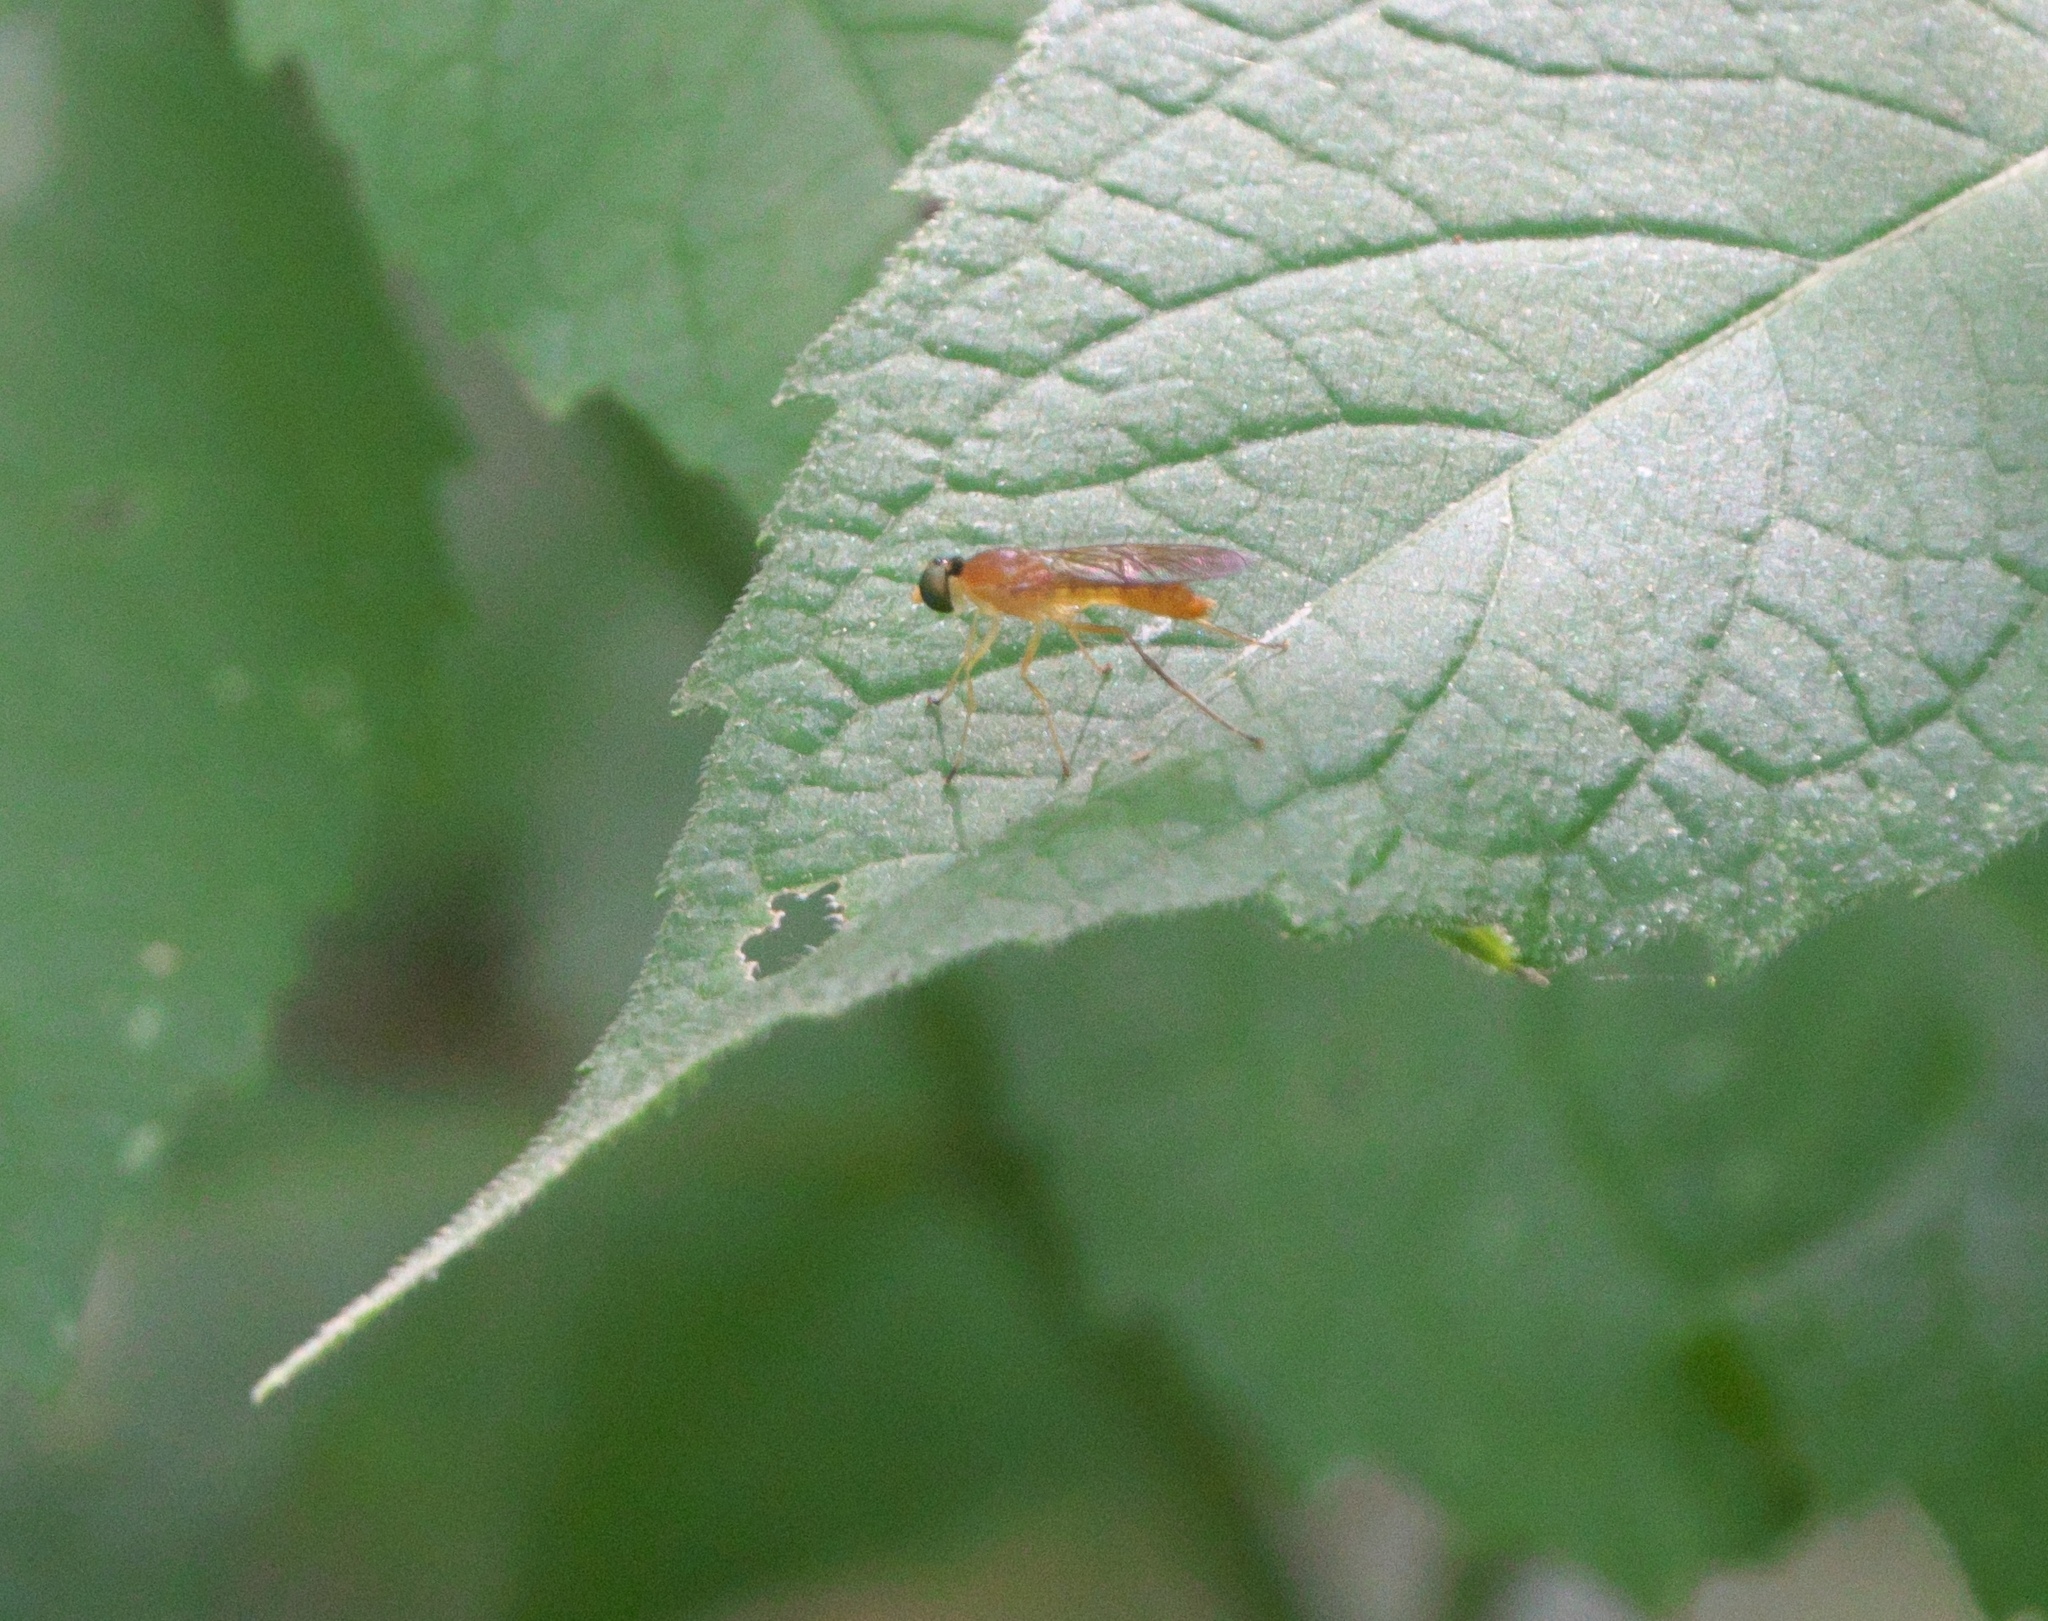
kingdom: Animalia
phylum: Arthropoda
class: Insecta
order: Diptera
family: Stratiomyidae
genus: Ptecticus
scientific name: Ptecticus trivittatus
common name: Compost fly
